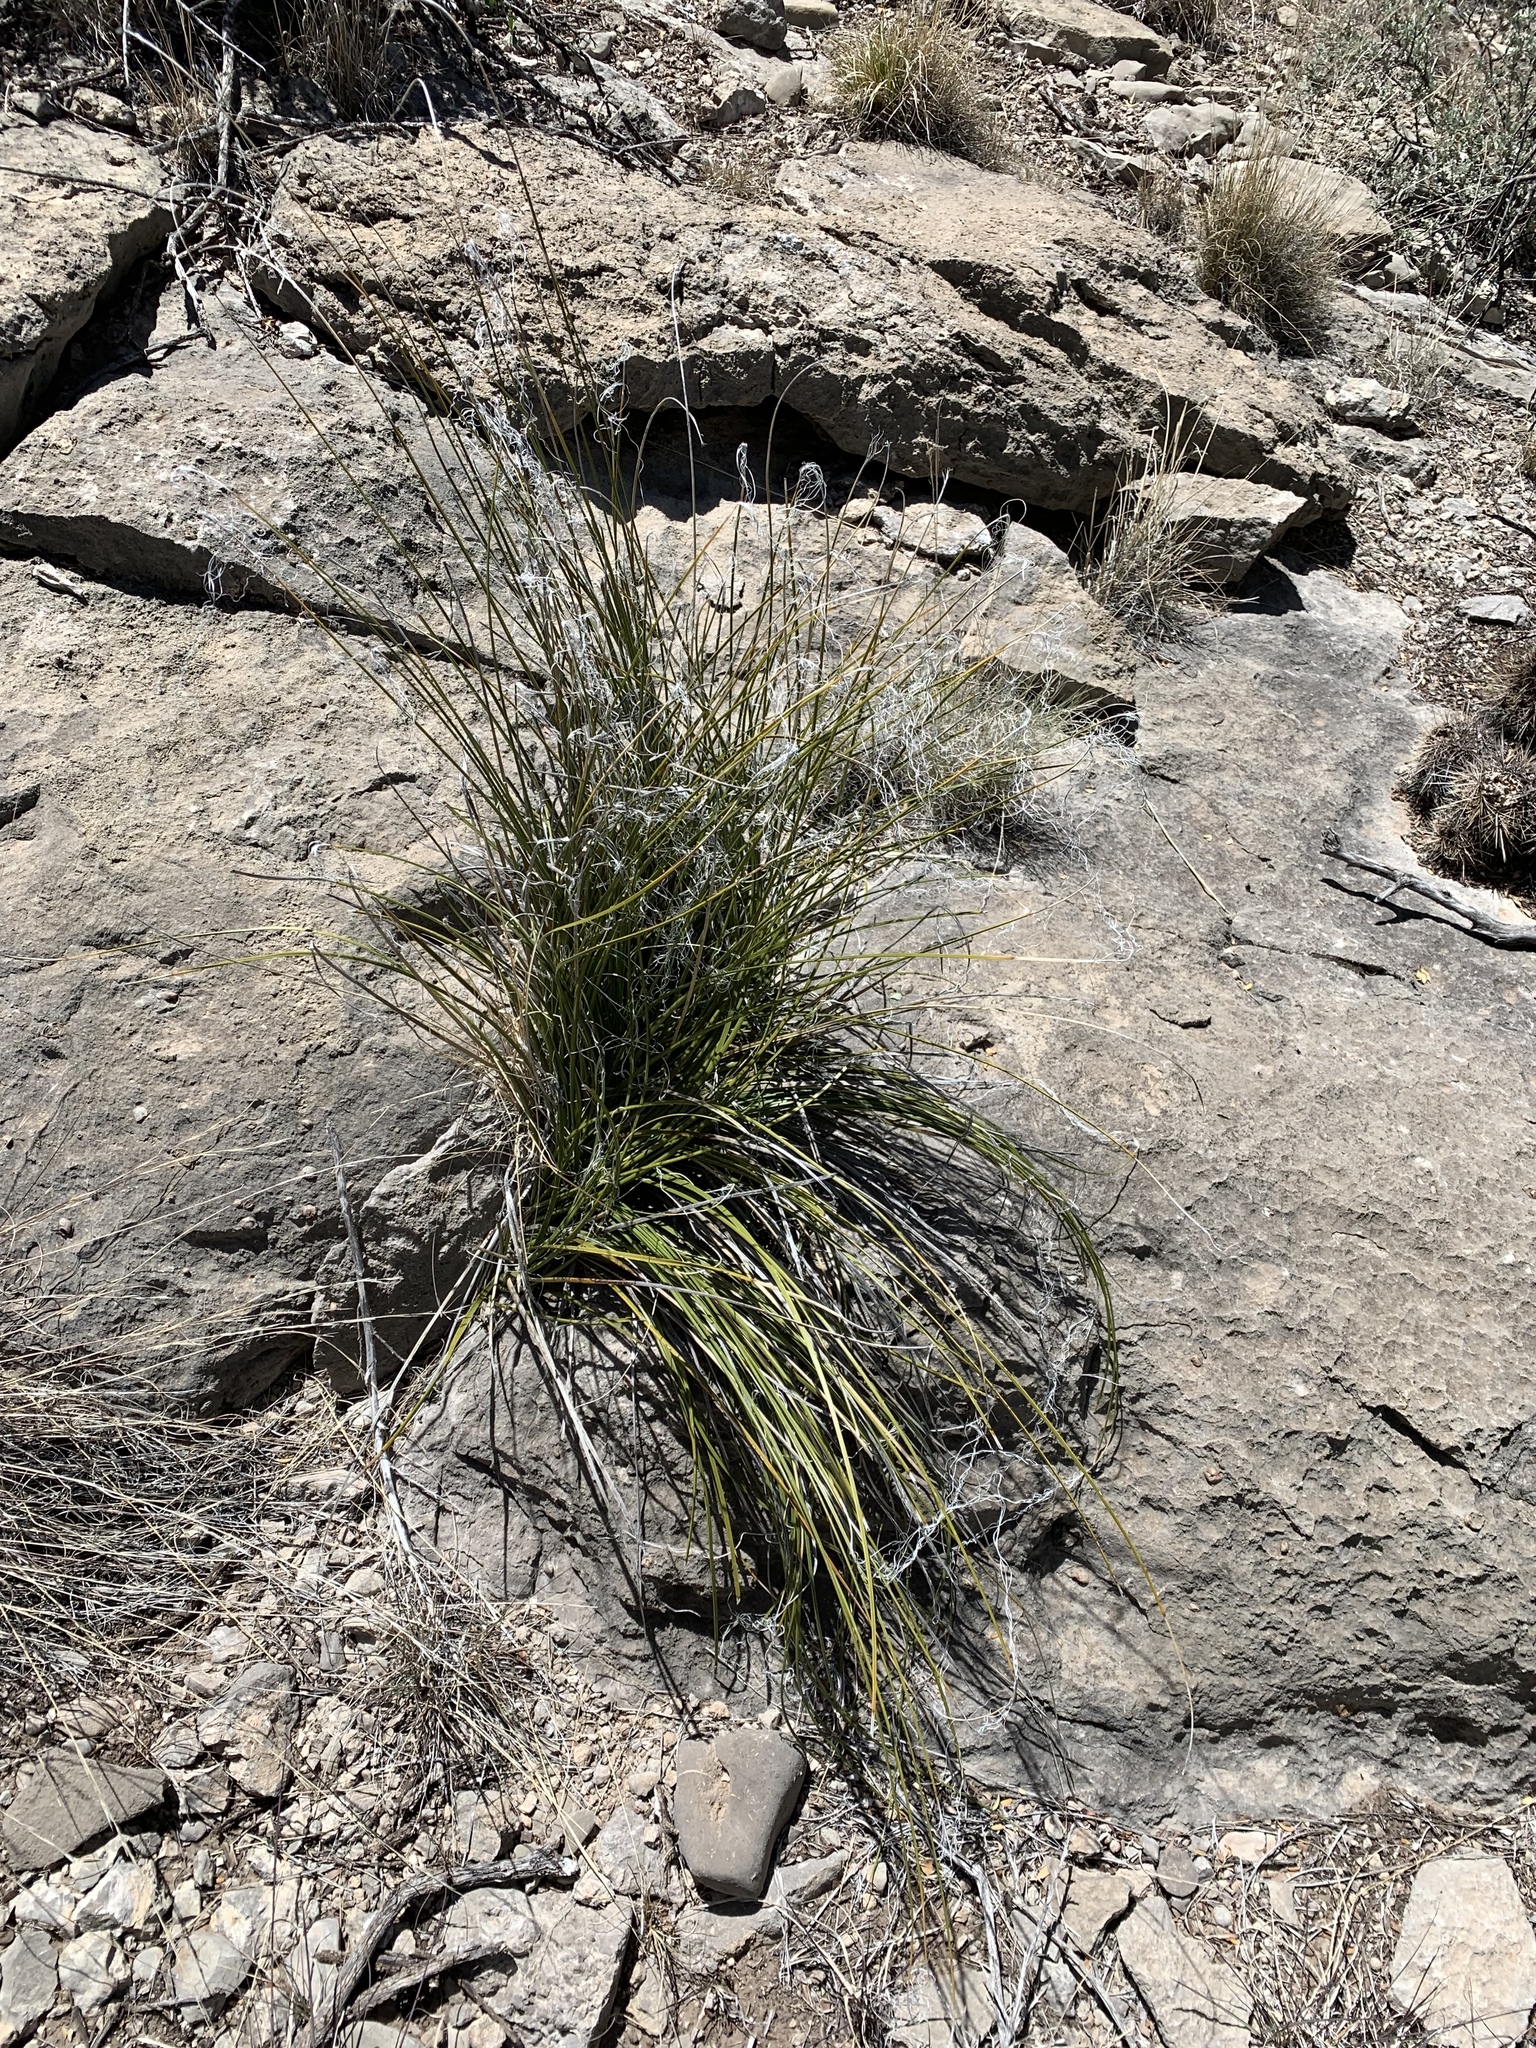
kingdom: Plantae
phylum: Tracheophyta
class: Liliopsida
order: Asparagales
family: Asparagaceae
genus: Nolina
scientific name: Nolina microcarpa
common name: Bear-grass
